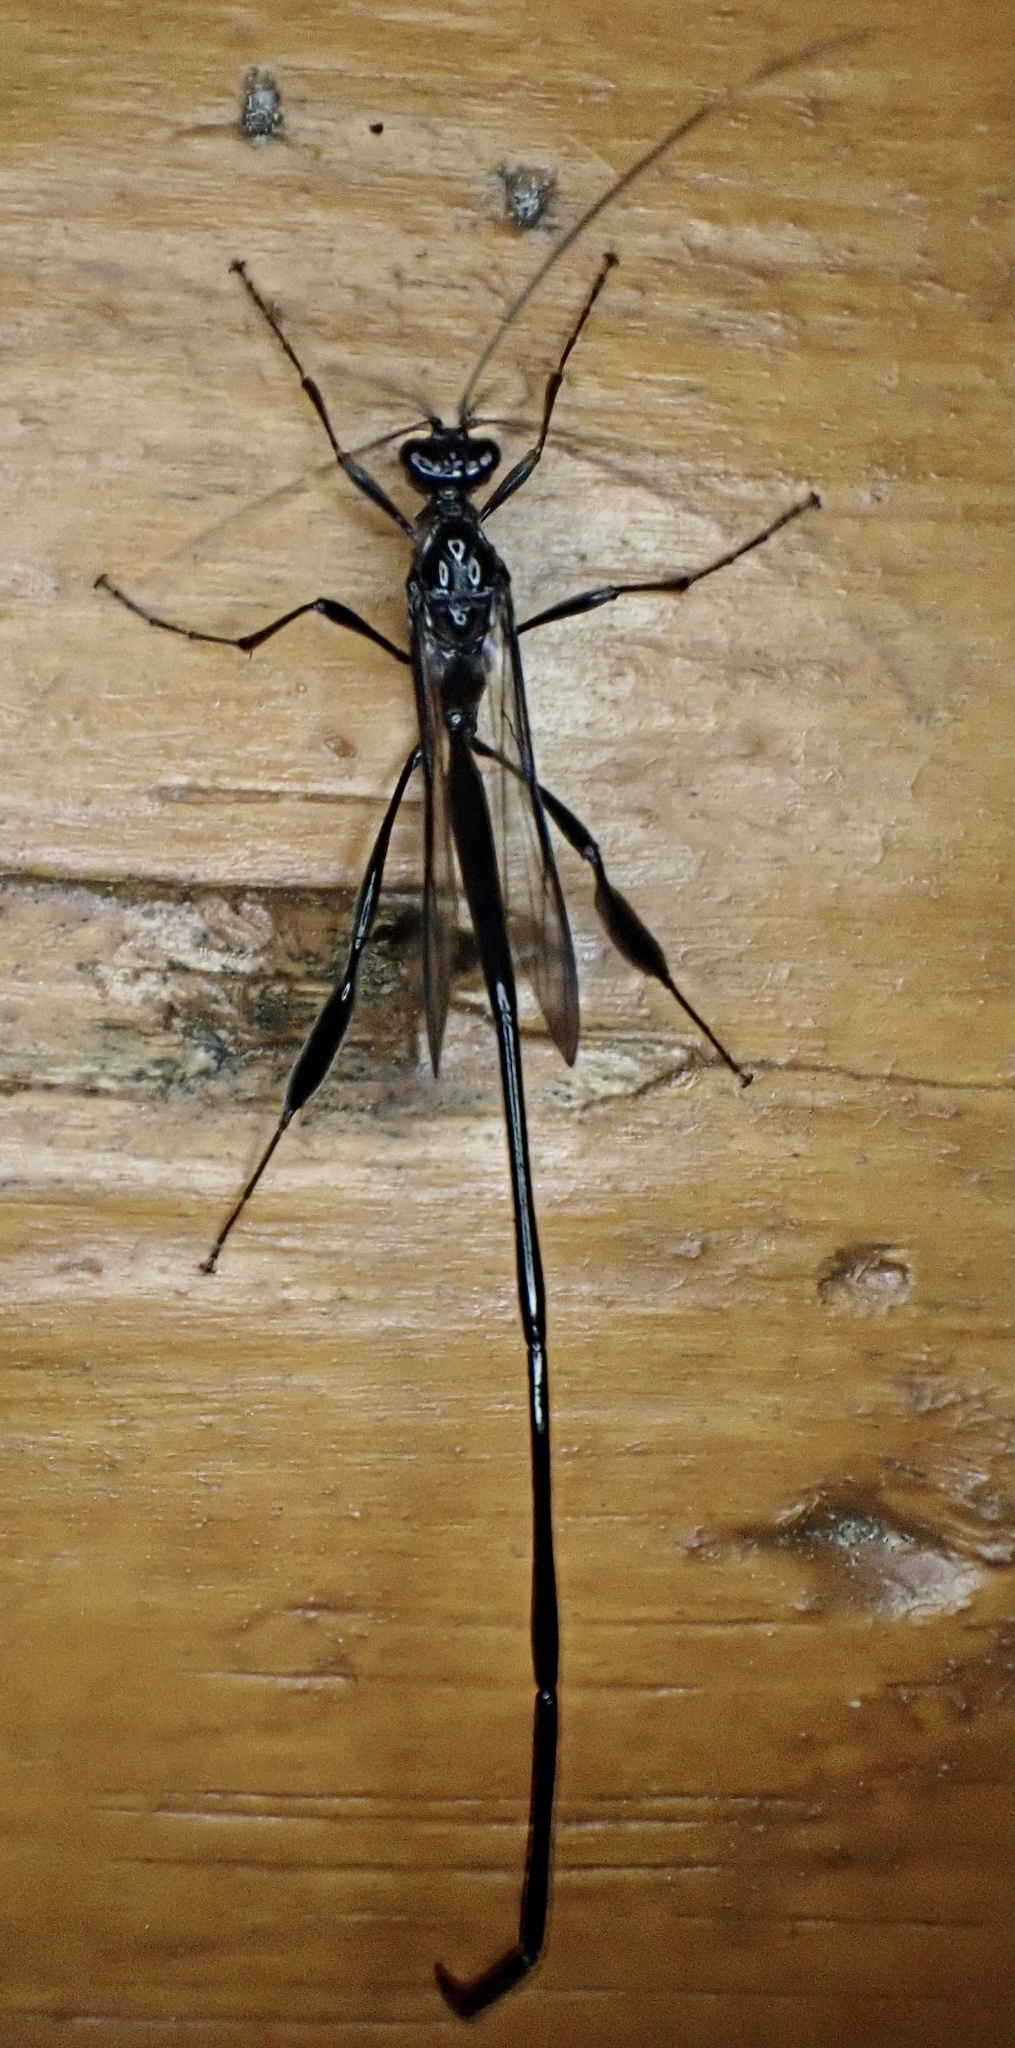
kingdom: Animalia
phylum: Arthropoda
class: Insecta
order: Hymenoptera
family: Pelecinidae
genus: Pelecinus
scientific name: Pelecinus polyturator
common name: American pelecinid wasp
